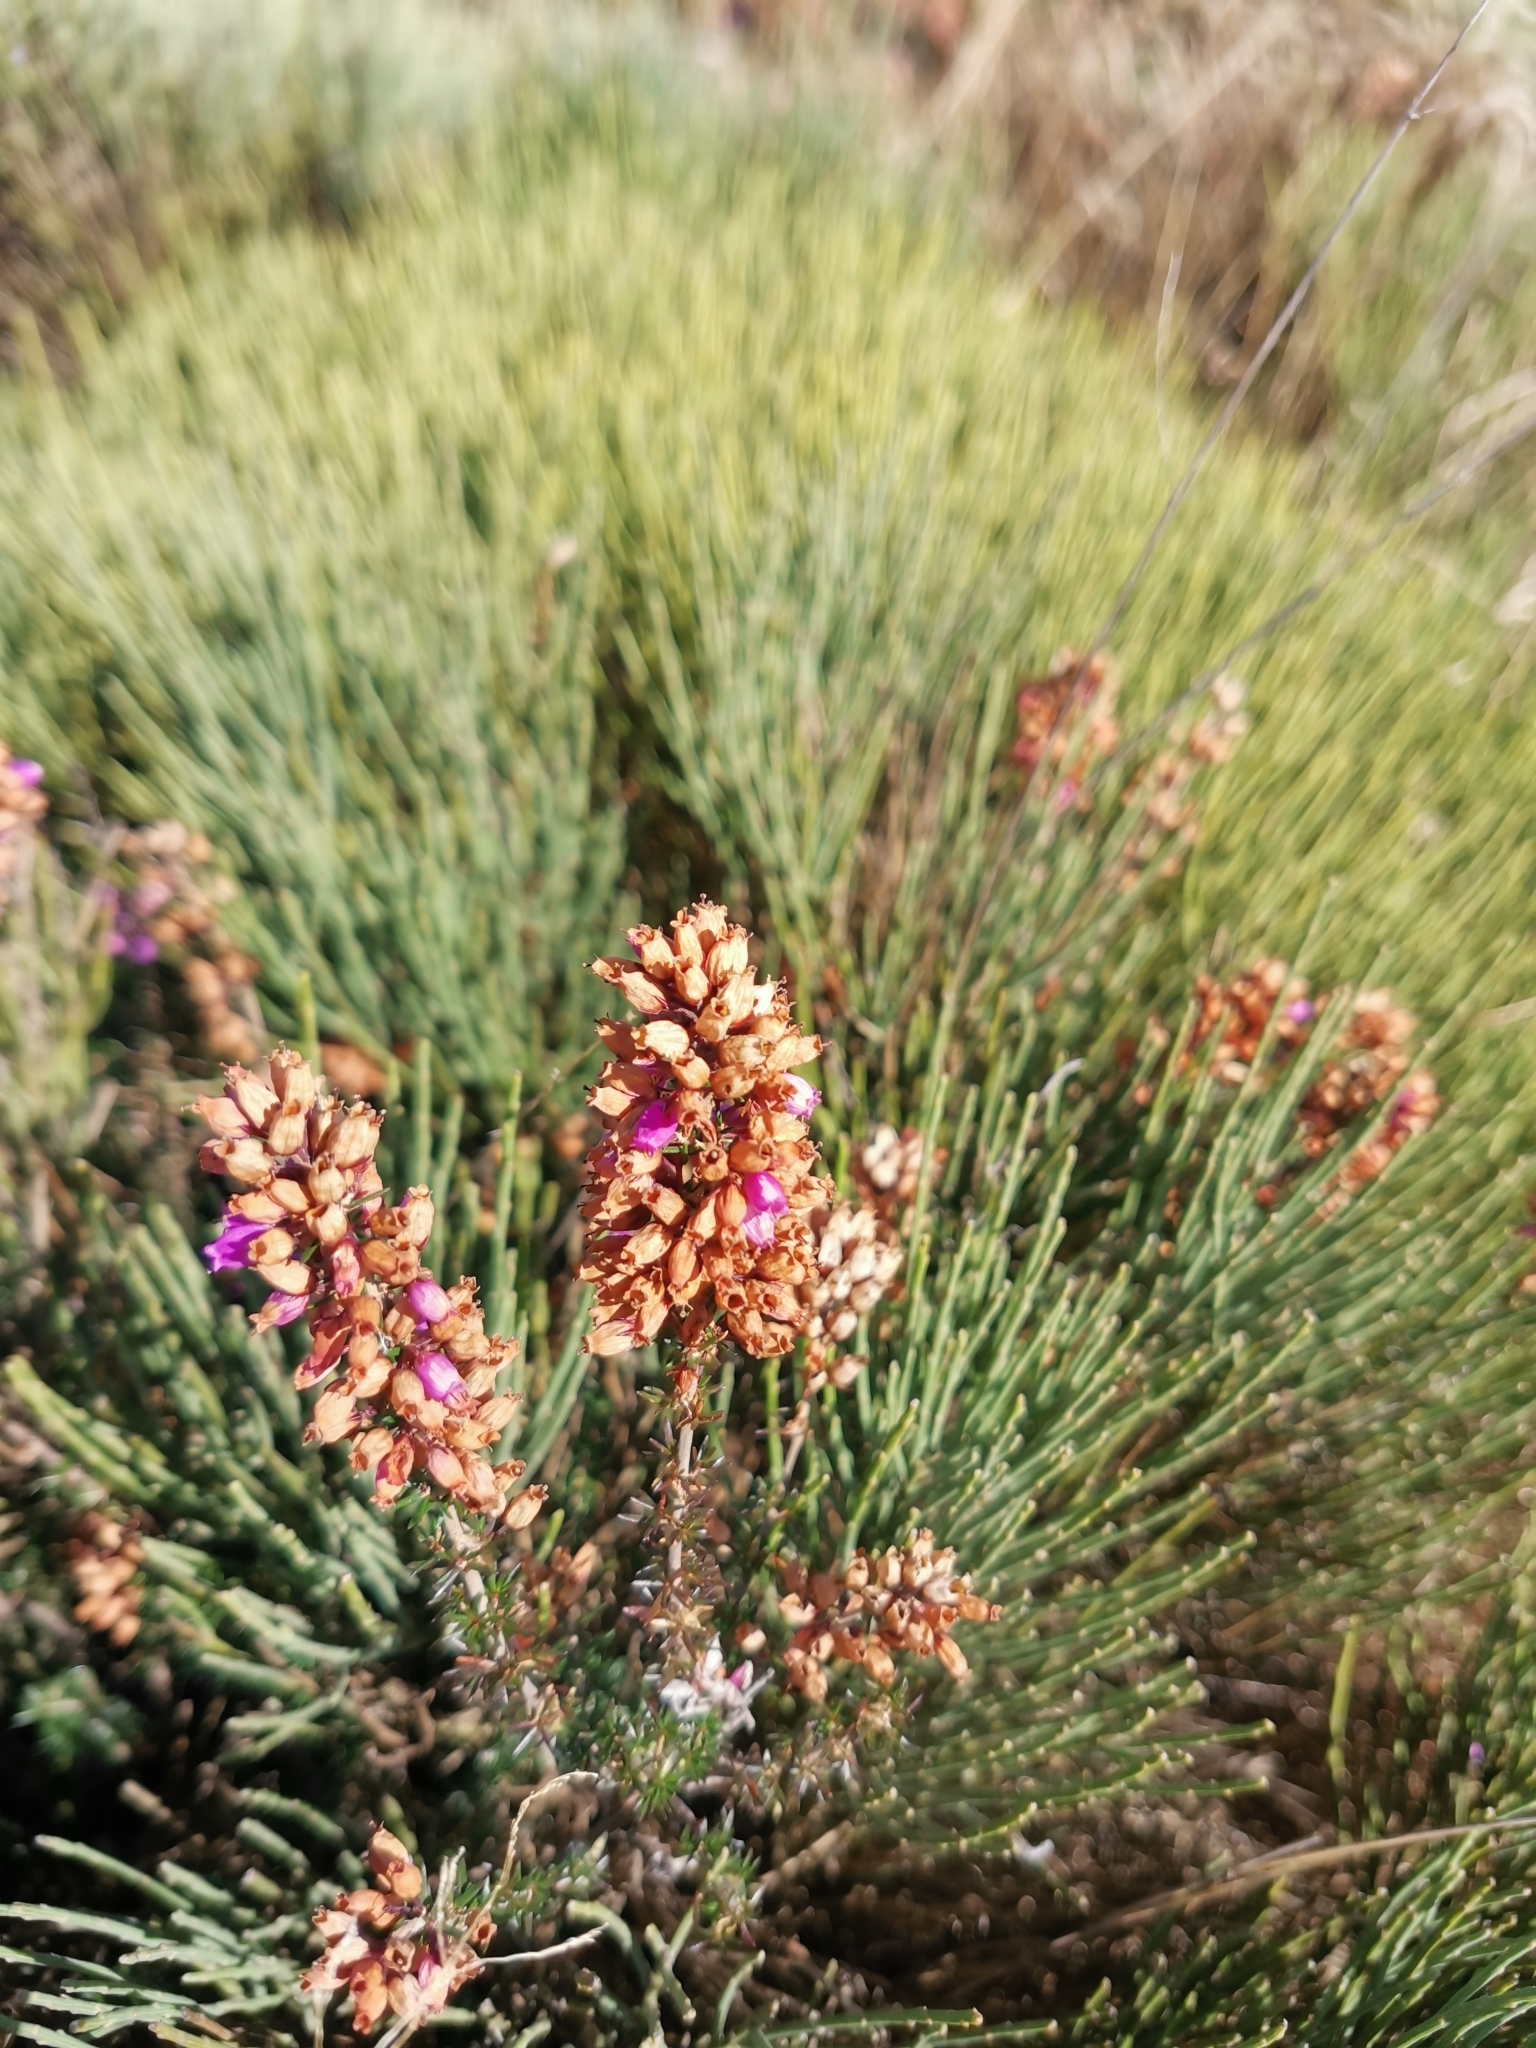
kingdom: Plantae
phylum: Tracheophyta
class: Magnoliopsida
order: Ericales
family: Ericaceae
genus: Erica
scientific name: Erica cinerea
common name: Bell heather
